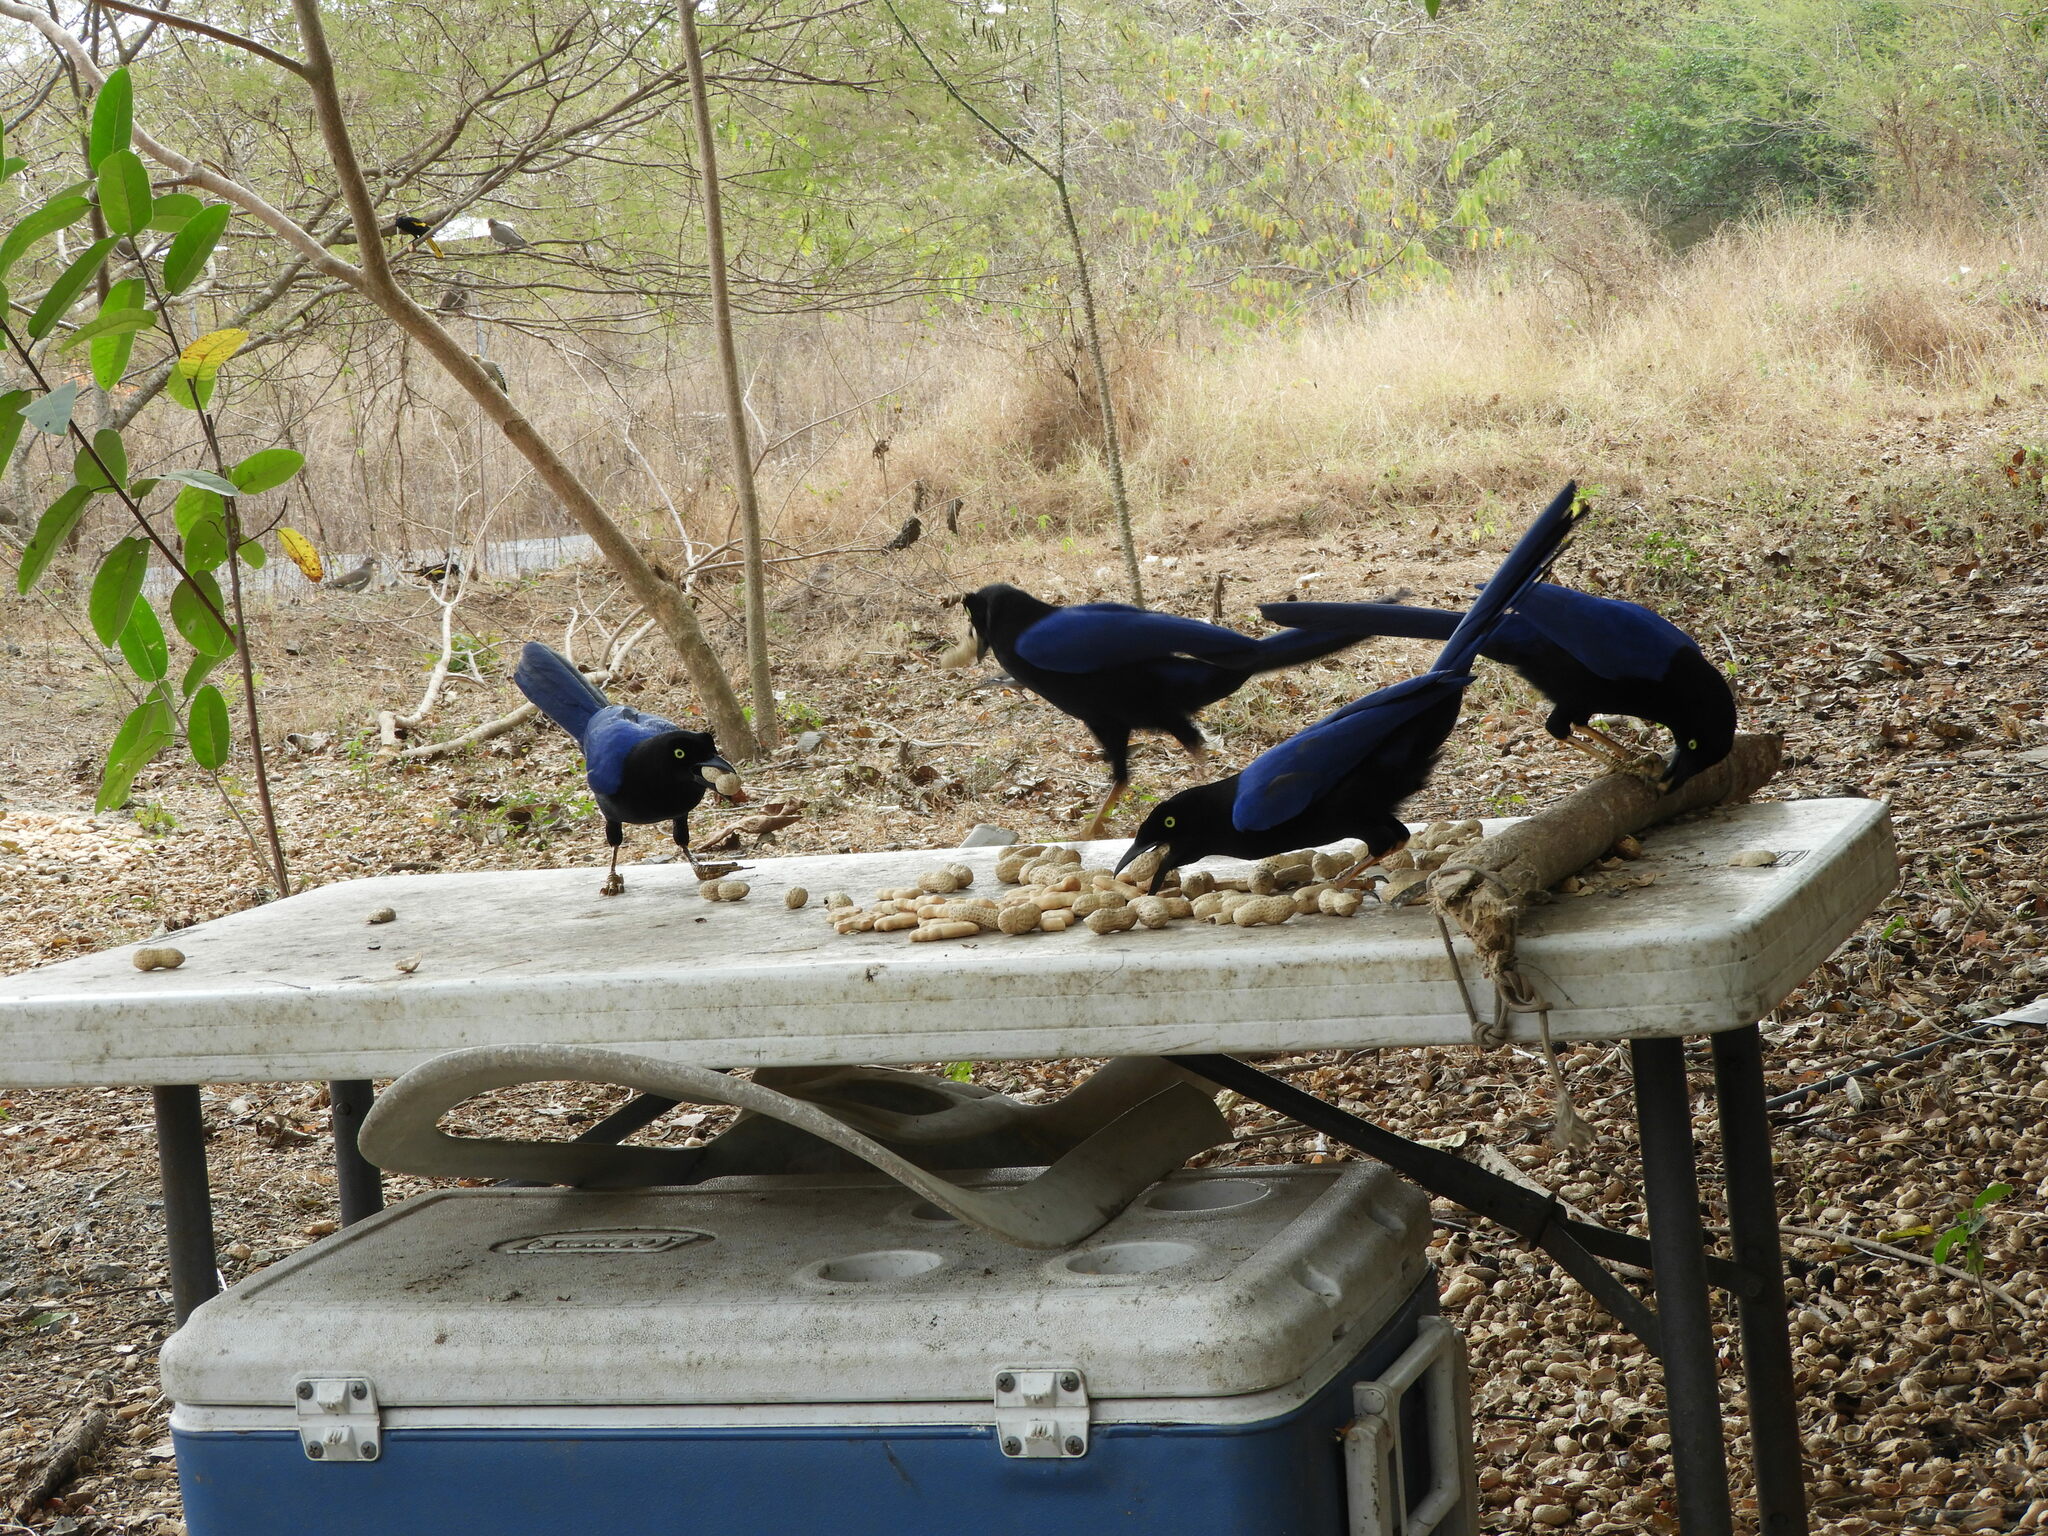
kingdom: Animalia
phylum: Chordata
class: Aves
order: Passeriformes
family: Corvidae
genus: Cyanocorax
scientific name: Cyanocorax beecheii
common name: Purplish-backed jay
